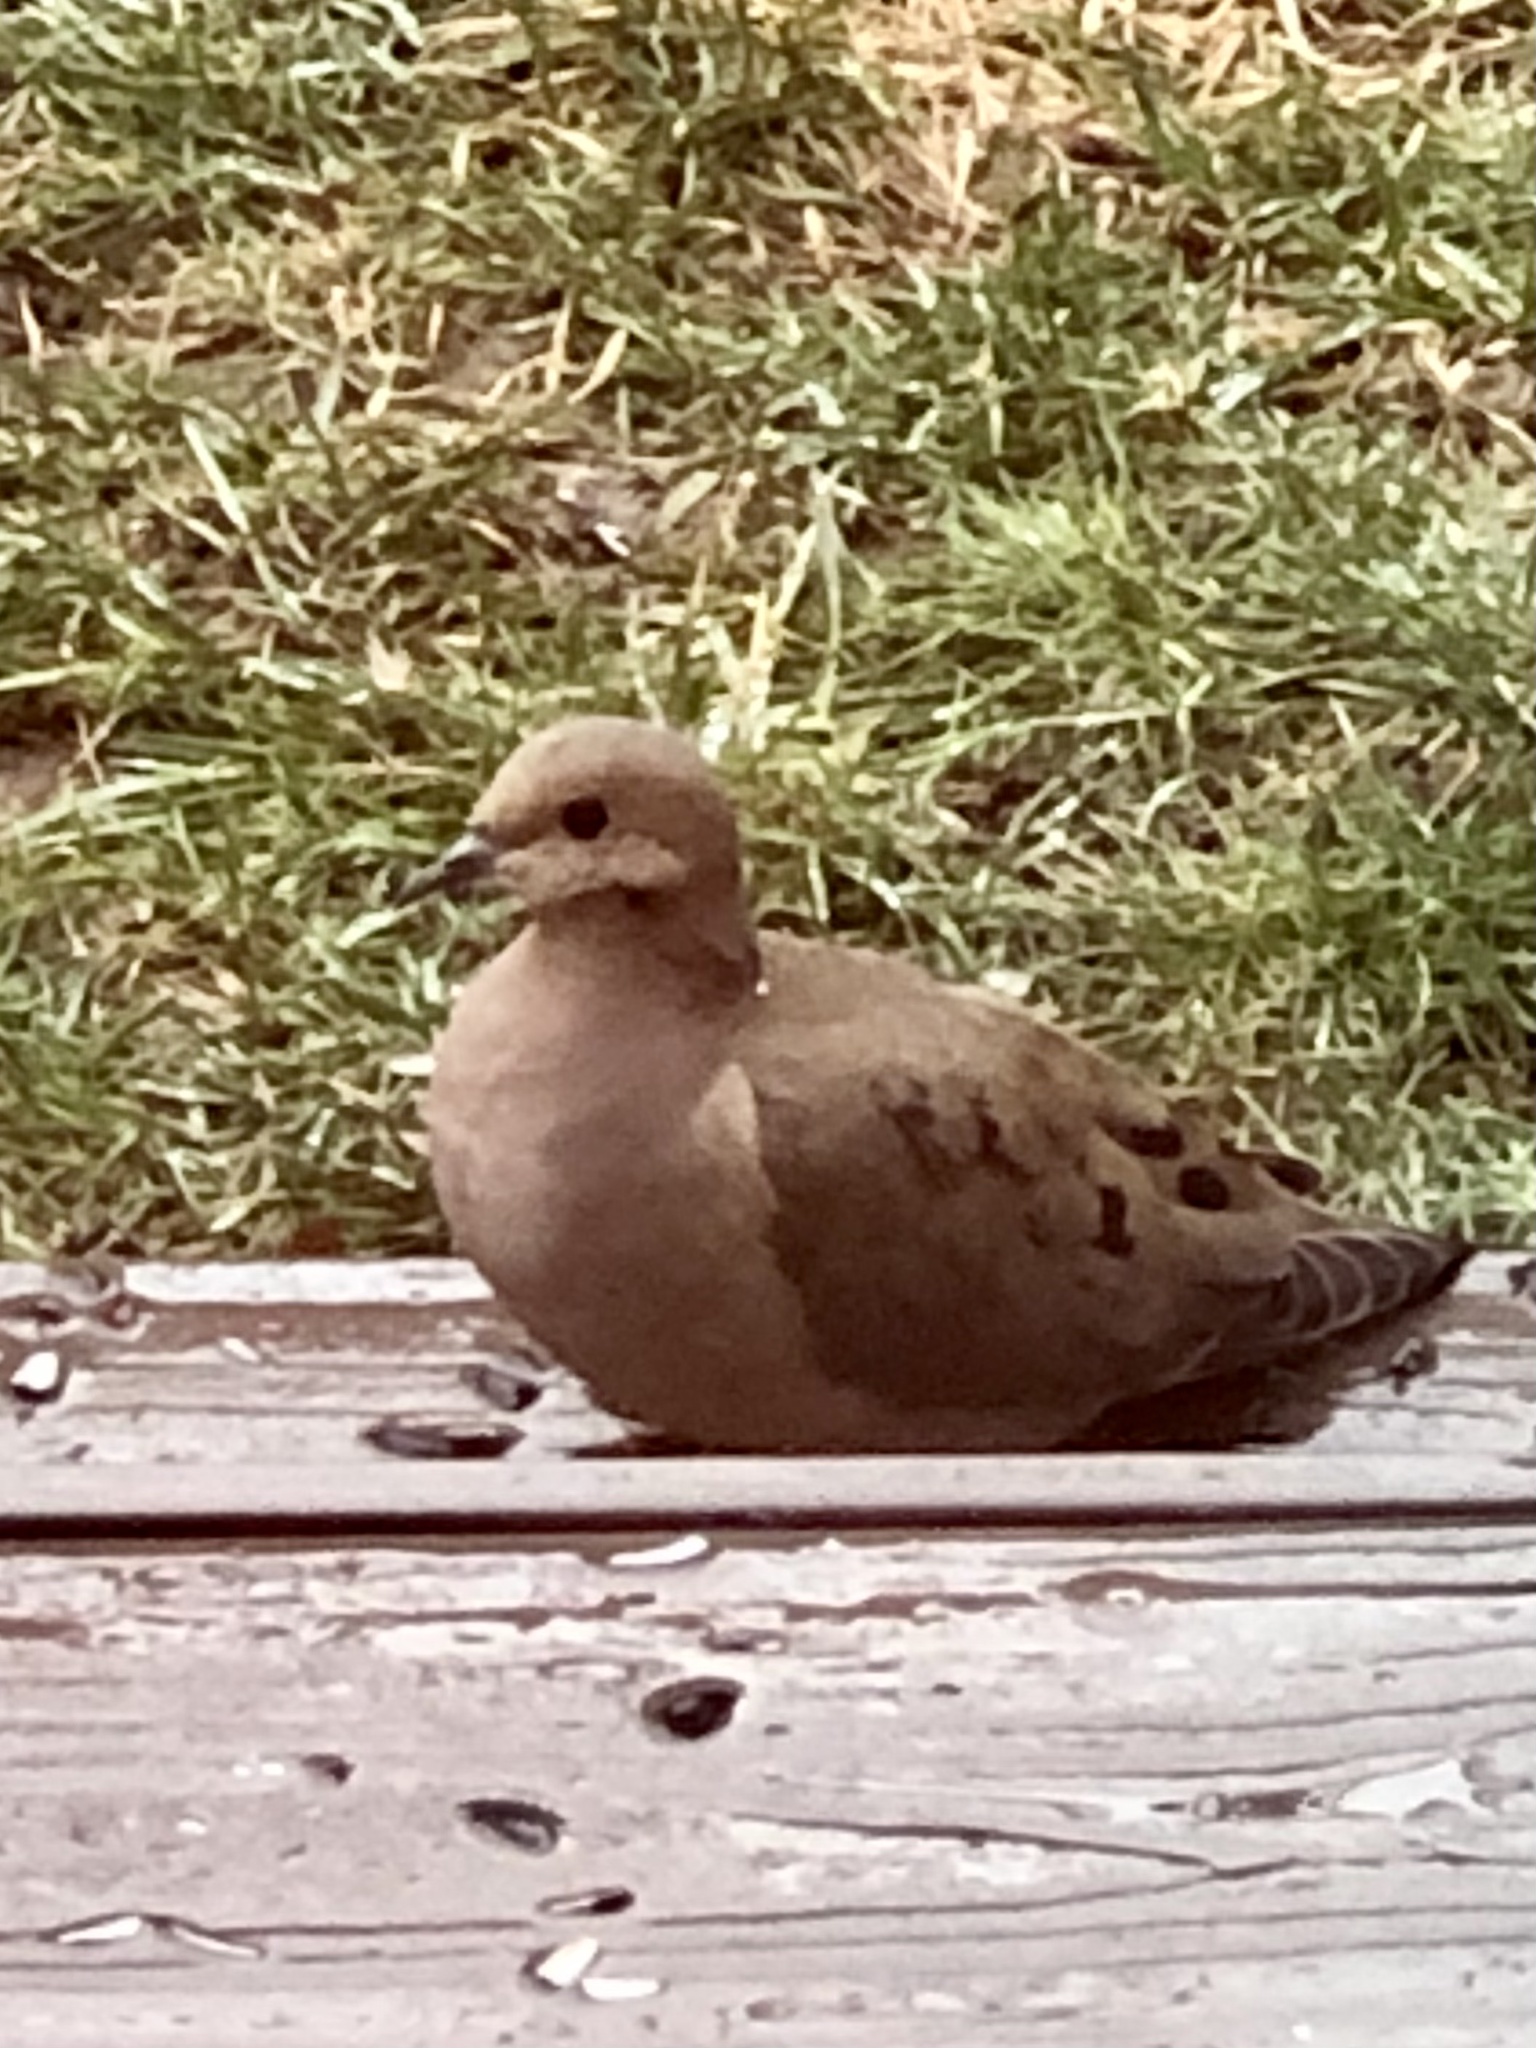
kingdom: Animalia
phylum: Chordata
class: Aves
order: Columbiformes
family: Columbidae
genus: Zenaida
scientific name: Zenaida macroura
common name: Mourning dove
